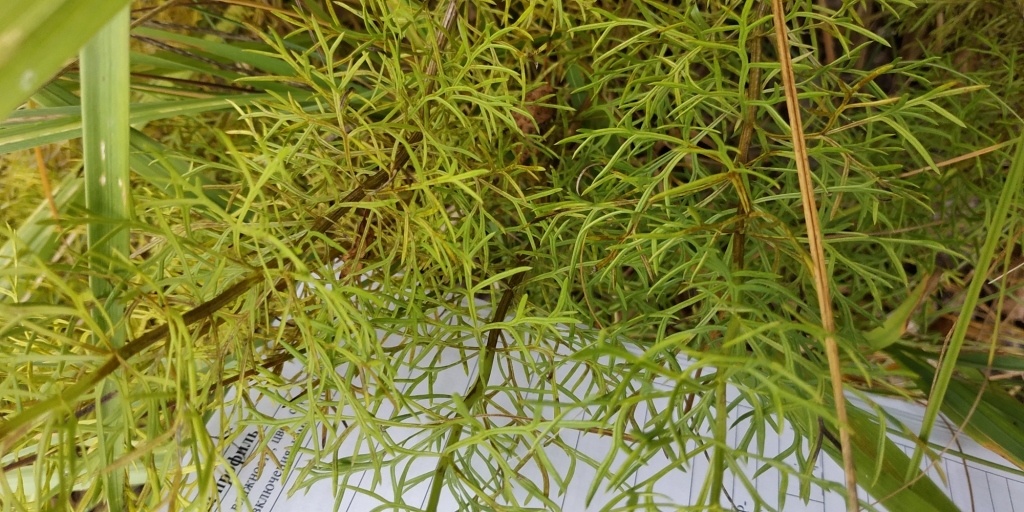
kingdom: Plantae
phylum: Tracheophyta
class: Magnoliopsida
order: Ranunculales
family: Ranunculaceae
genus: Adonis
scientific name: Adonis vernalis
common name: Yellow pheasants-eye
